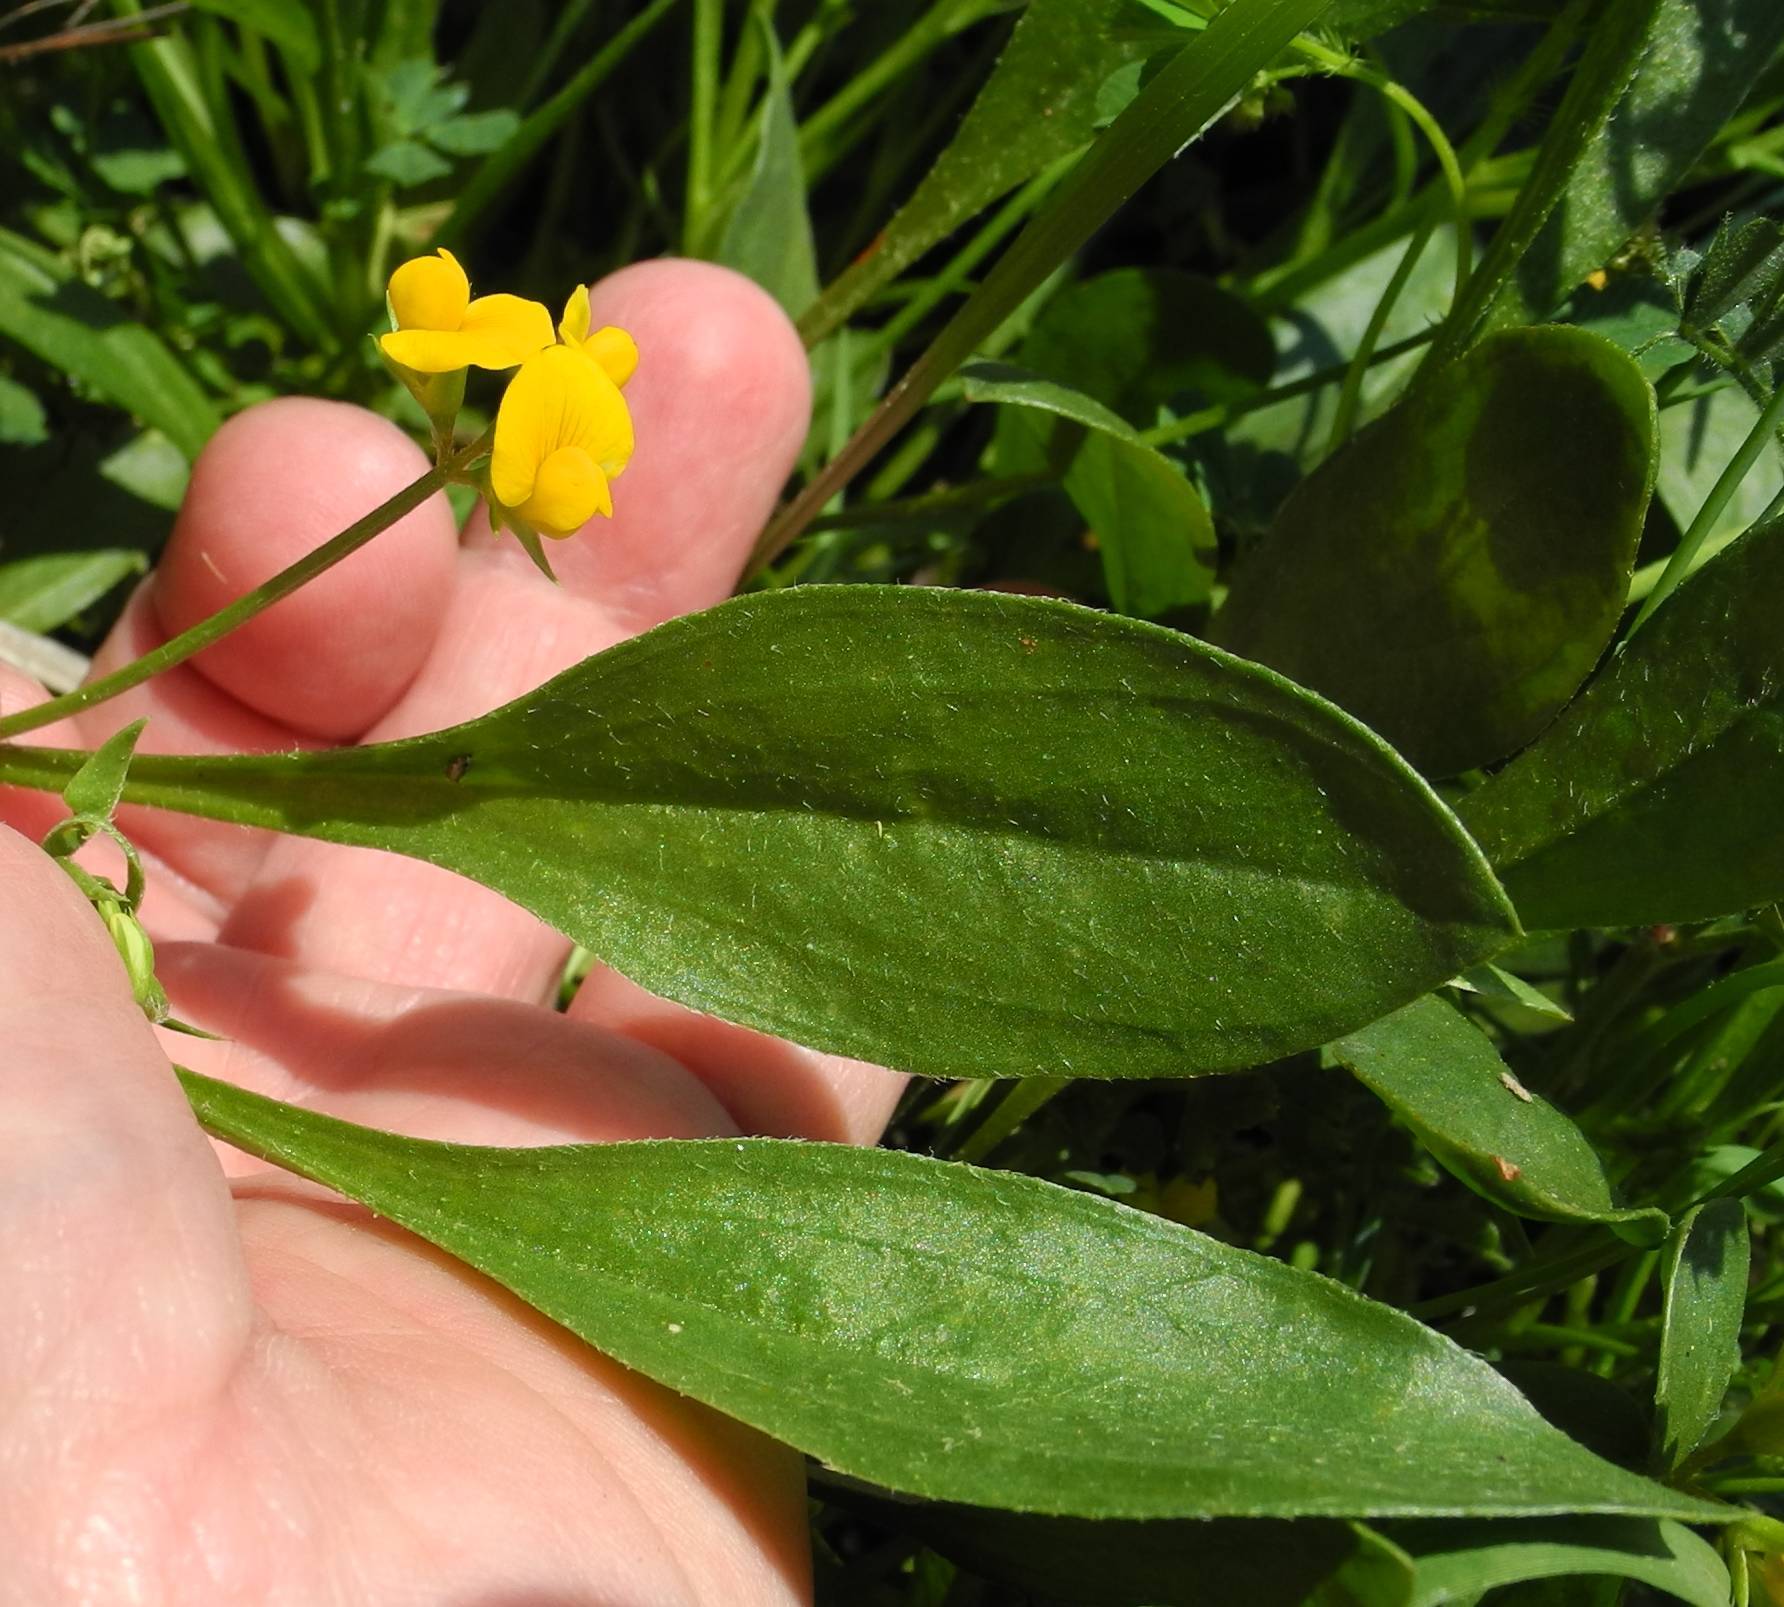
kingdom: Plantae
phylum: Tracheophyta
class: Magnoliopsida
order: Fabales
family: Fabaceae
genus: Scorpiurus
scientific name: Scorpiurus muricatus
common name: Caterpillar-plant
